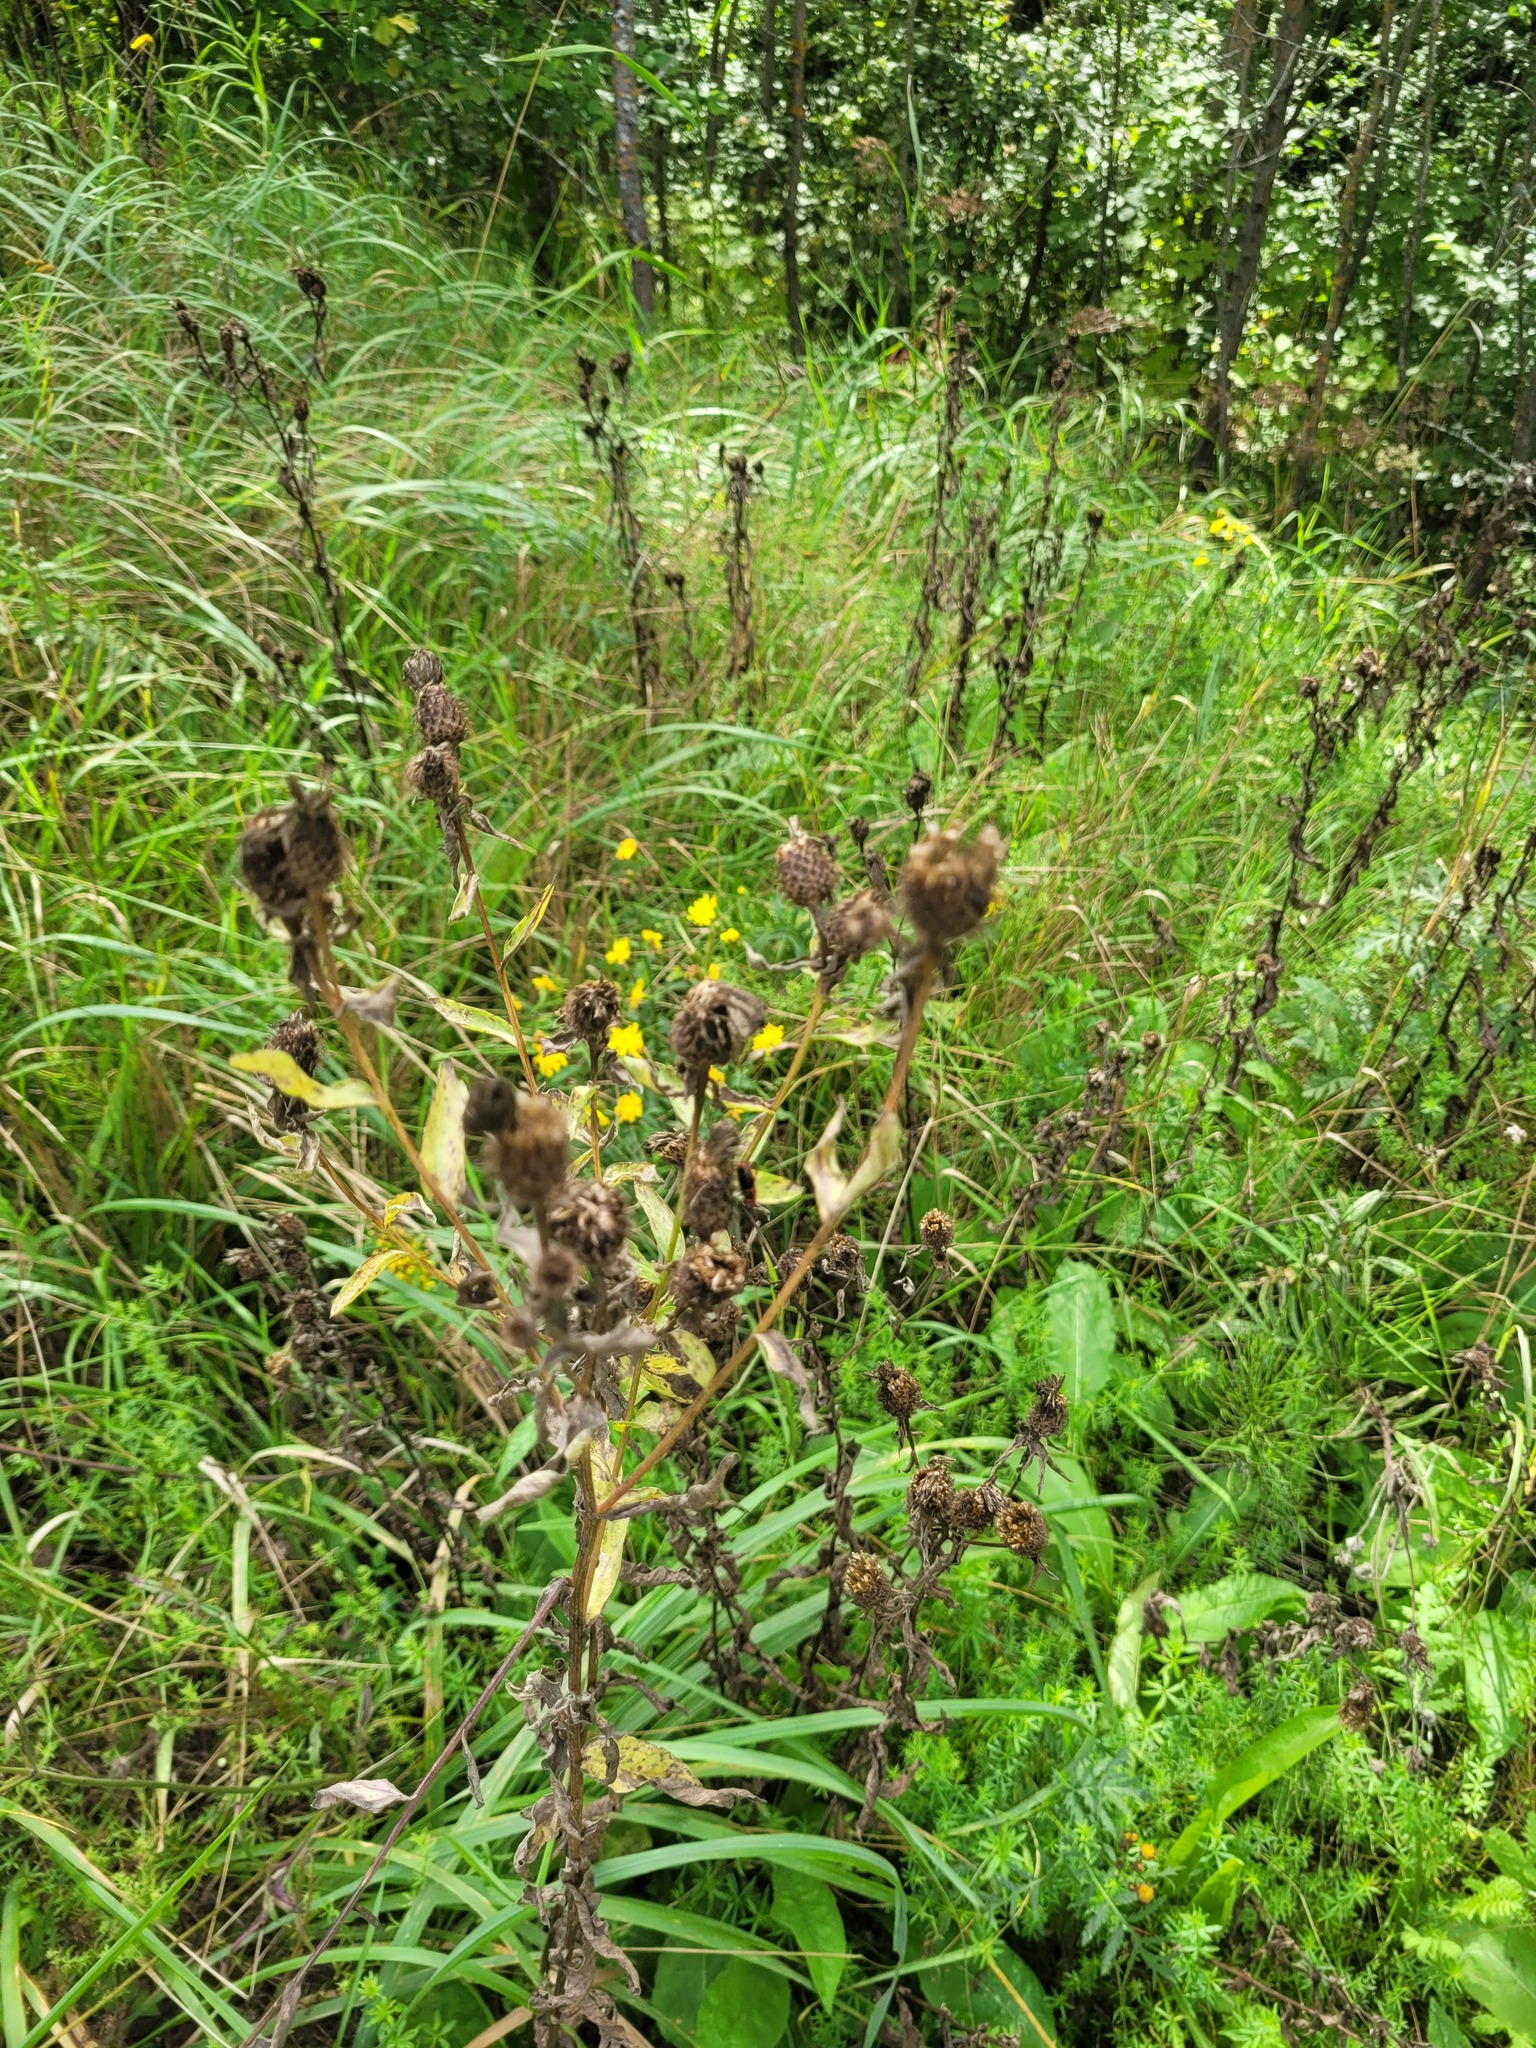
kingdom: Plantae
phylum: Tracheophyta
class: Magnoliopsida
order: Asterales
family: Asteraceae
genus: Centaurea
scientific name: Centaurea pseudophrygia
